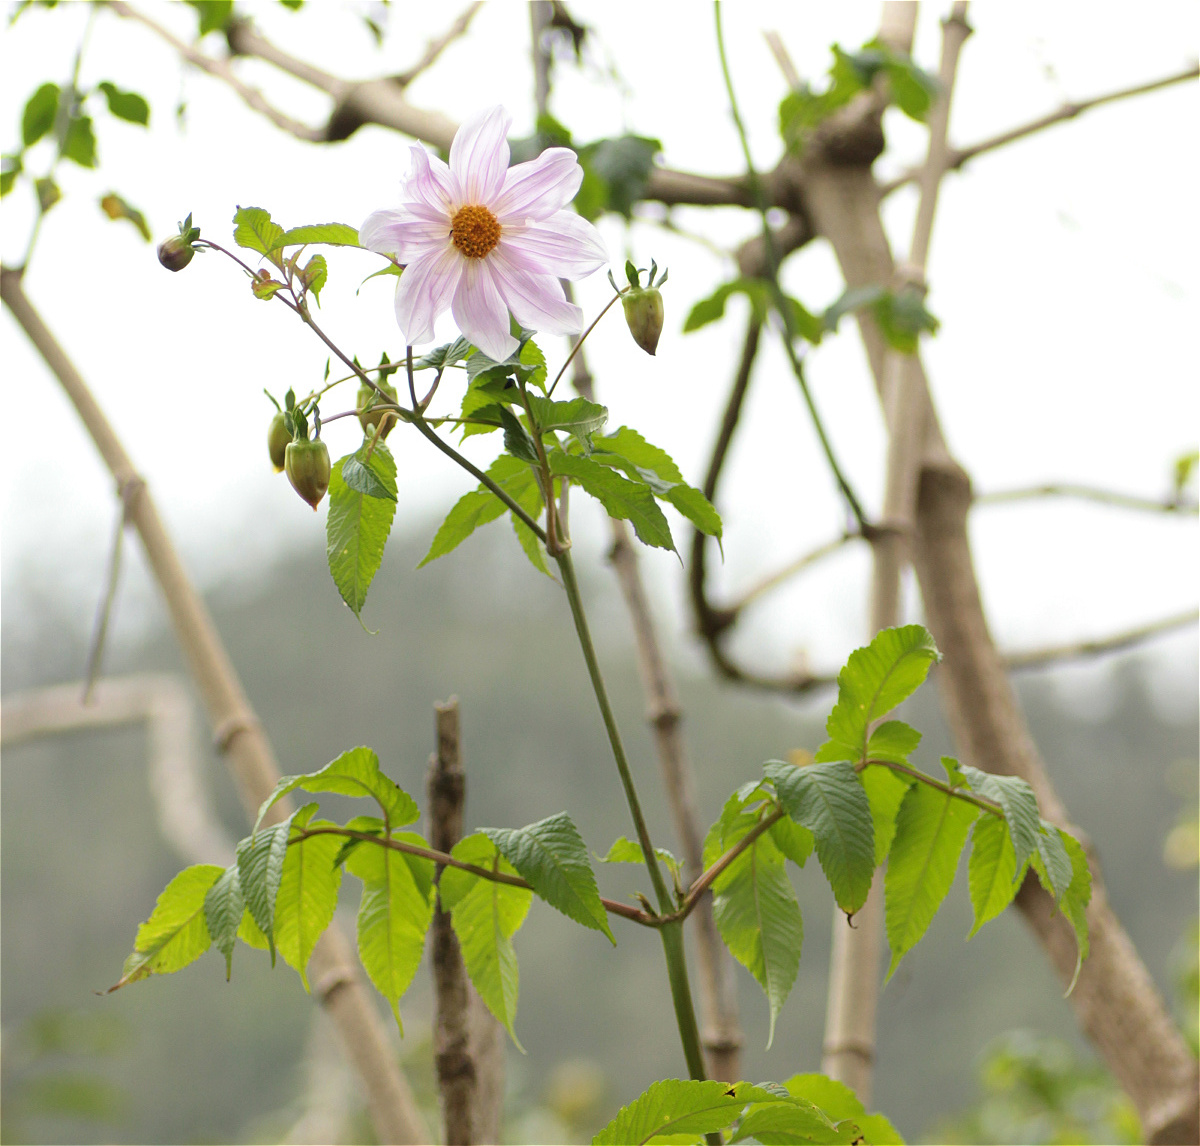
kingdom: Plantae
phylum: Tracheophyta
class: Magnoliopsida
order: Asterales
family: Asteraceae
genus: Dahlia
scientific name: Dahlia imperialis
